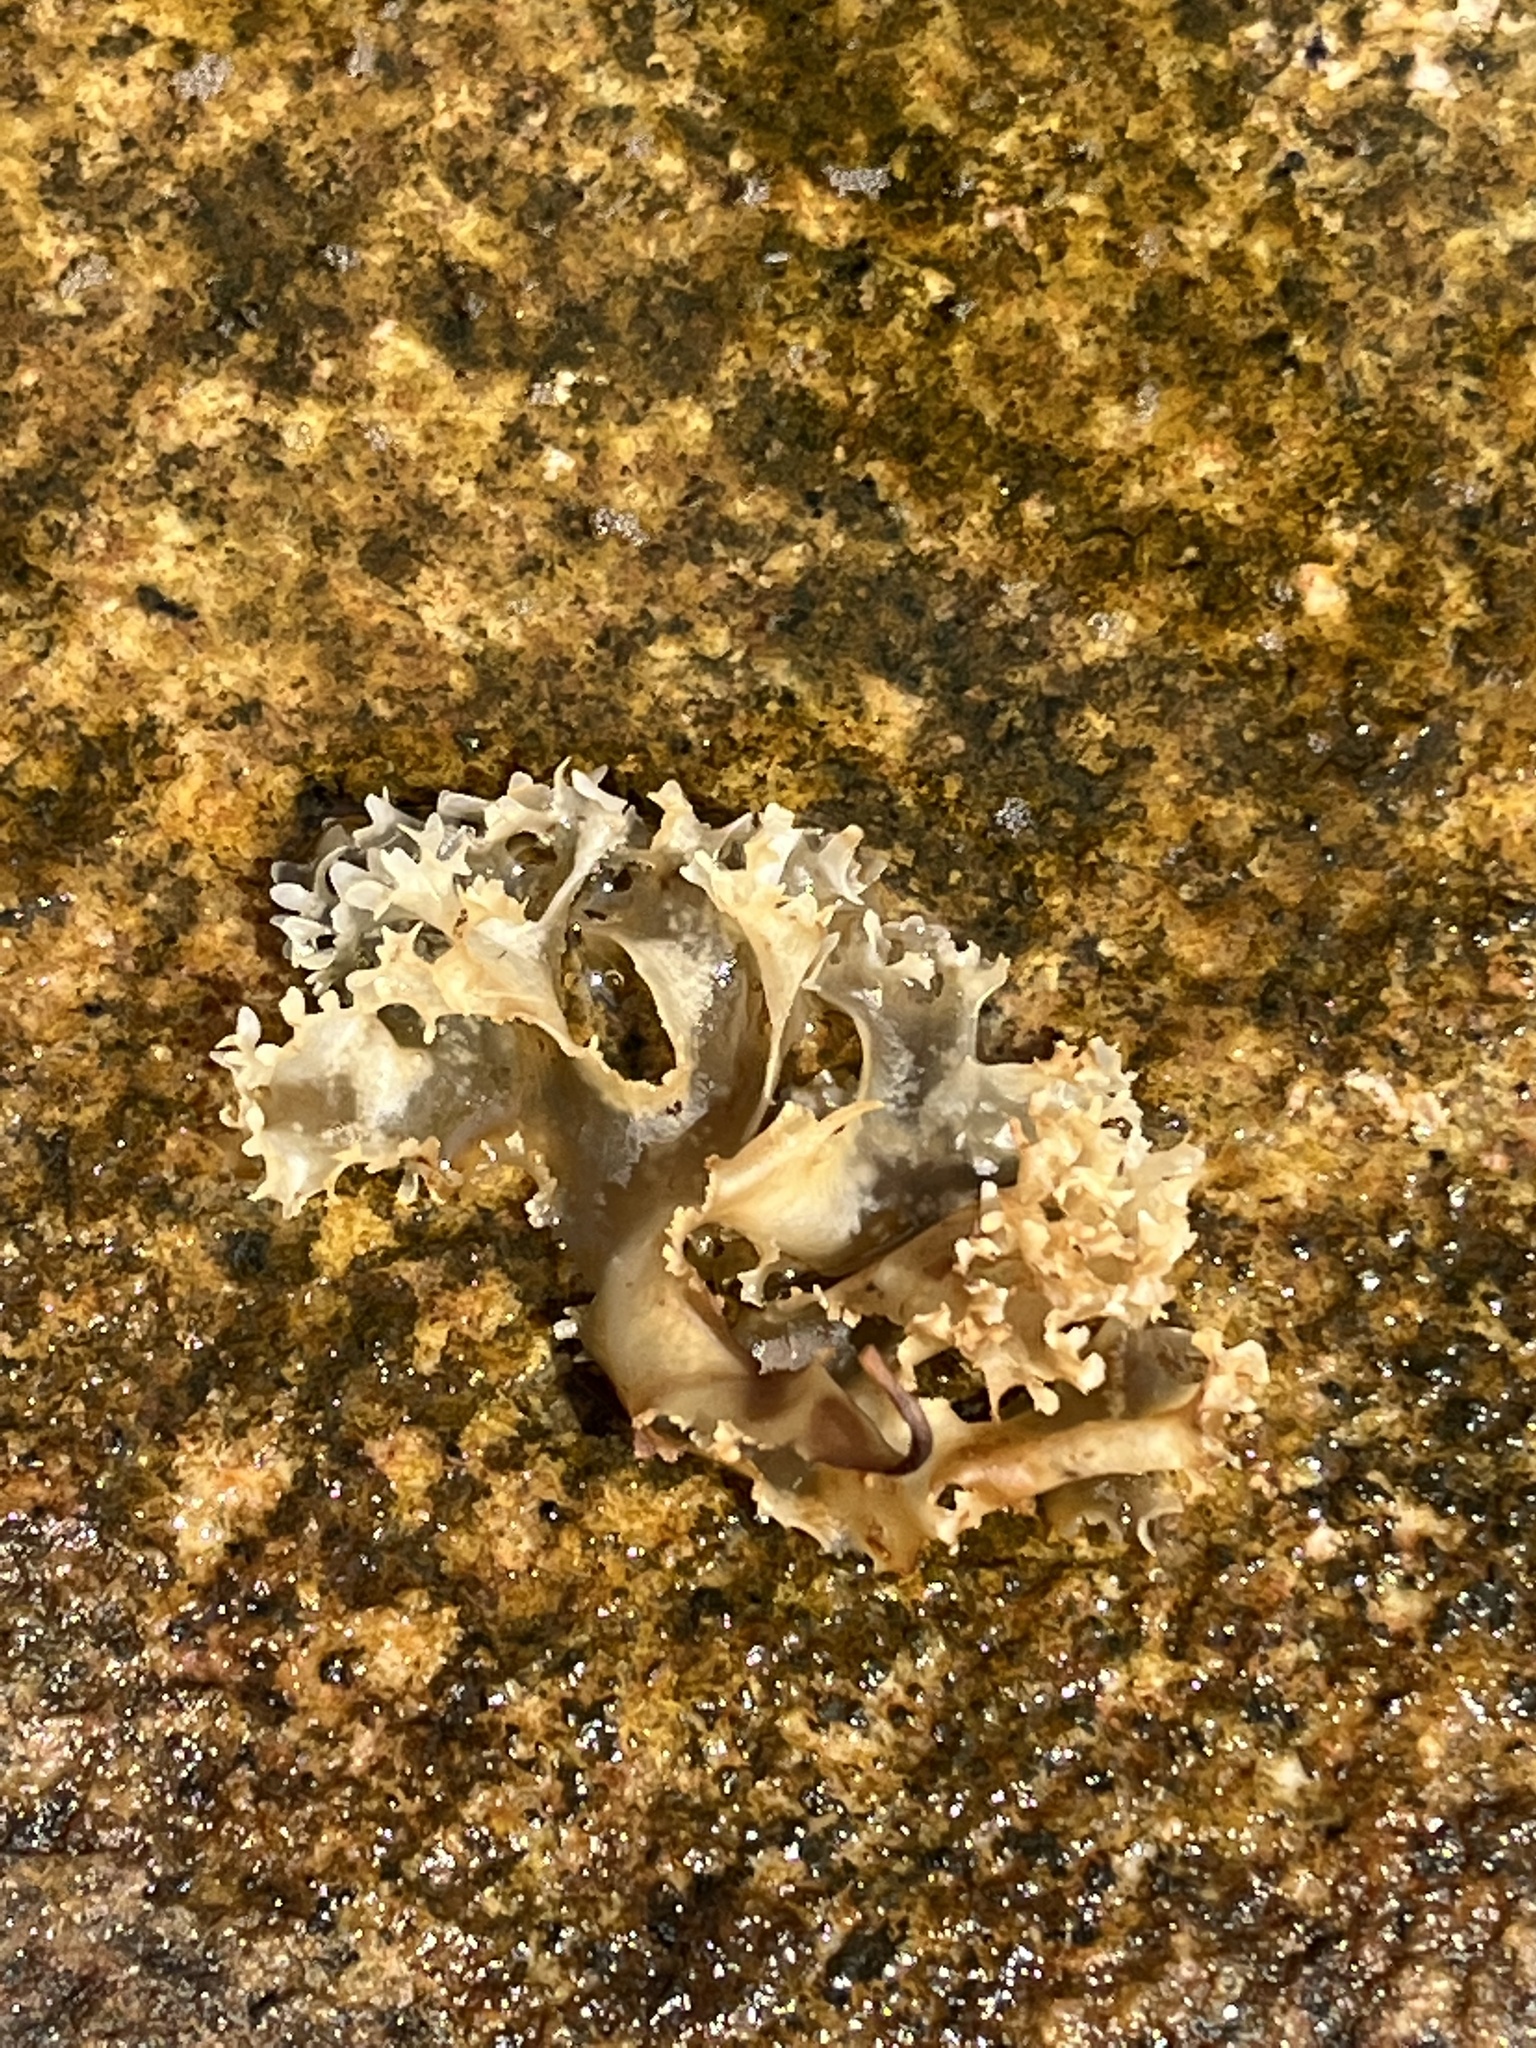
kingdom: Plantae
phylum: Rhodophyta
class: Florideophyceae
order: Gigartinales
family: Gigartinaceae
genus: Chondrus
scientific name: Chondrus crispus
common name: Carrageen
